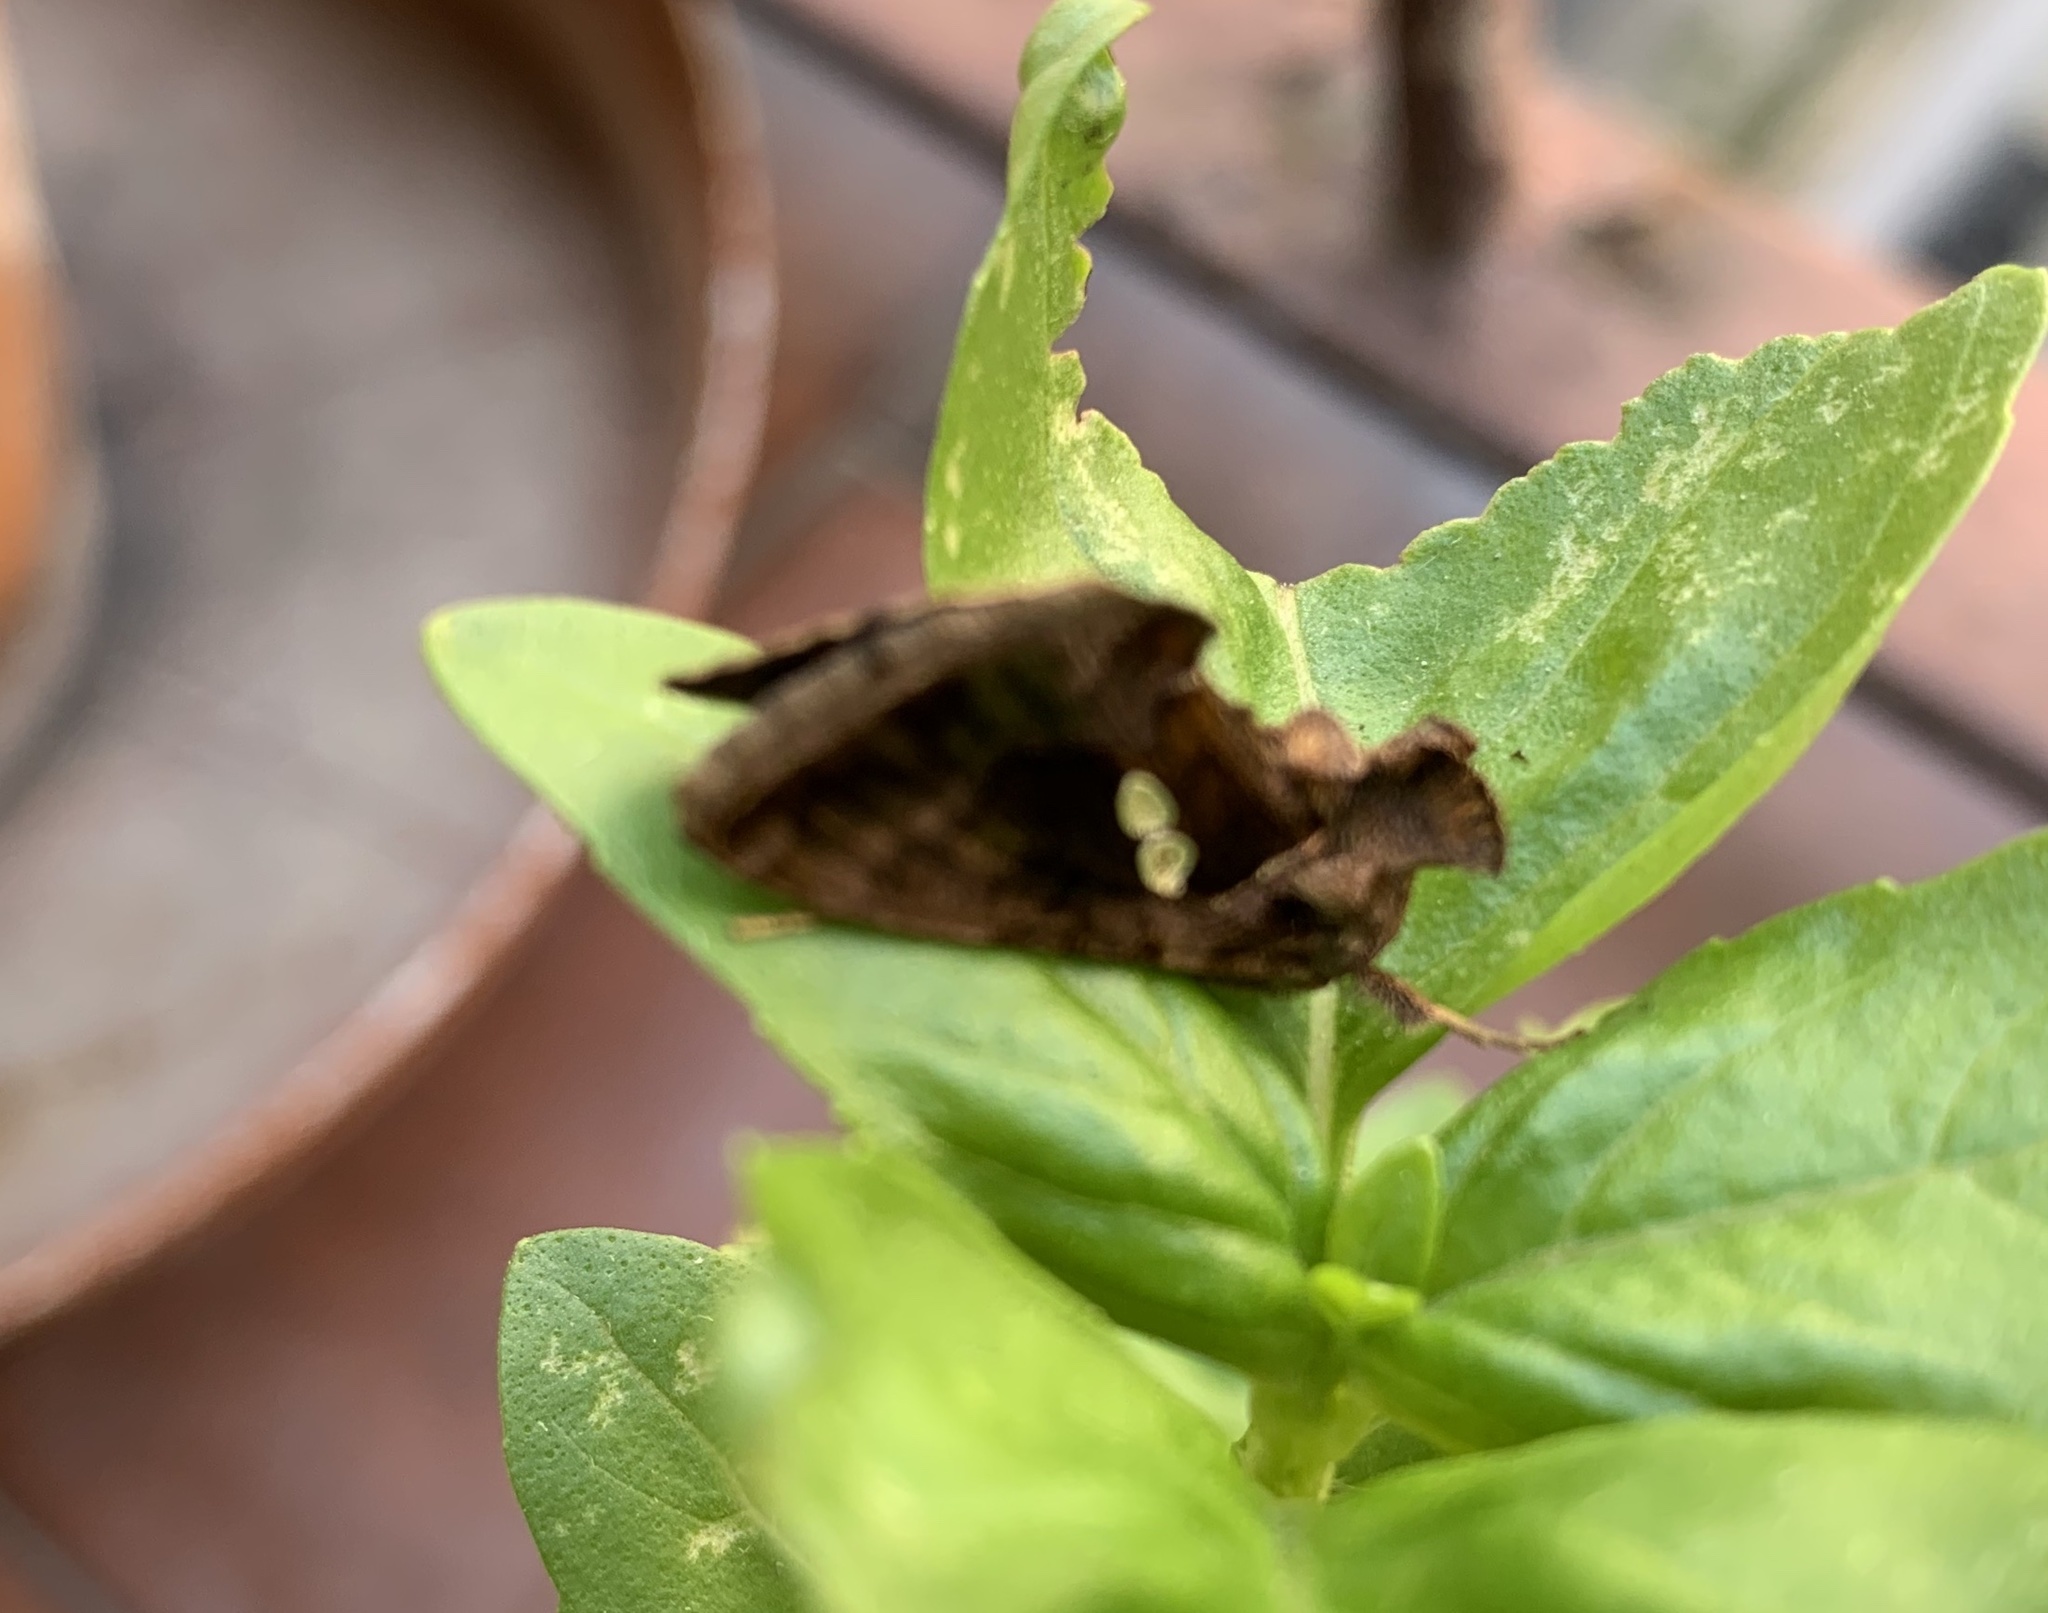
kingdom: Animalia
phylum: Arthropoda
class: Insecta
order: Lepidoptera
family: Noctuidae
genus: Chrysodeixis
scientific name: Chrysodeixis chalcites
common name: Golden twin-spot
